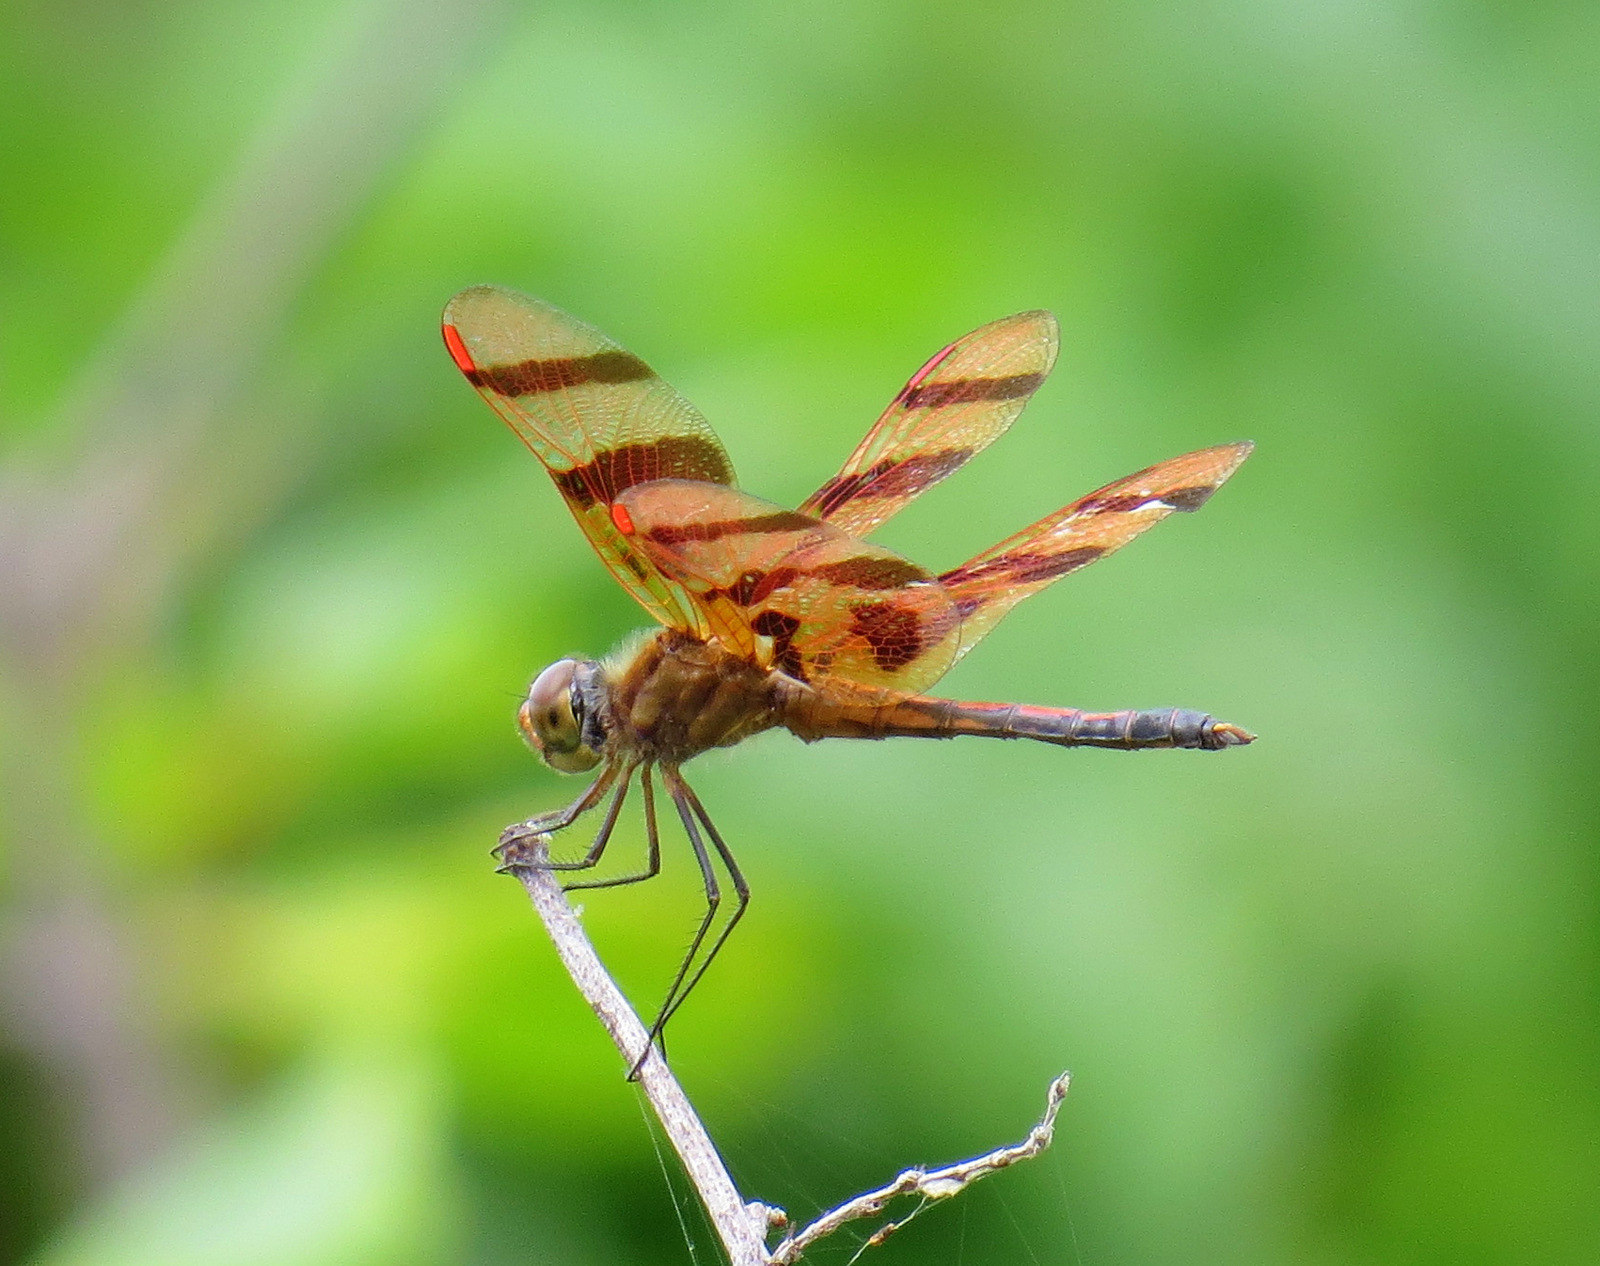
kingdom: Animalia
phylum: Arthropoda
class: Insecta
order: Odonata
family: Libellulidae
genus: Celithemis
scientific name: Celithemis eponina
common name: Halloween pennant
